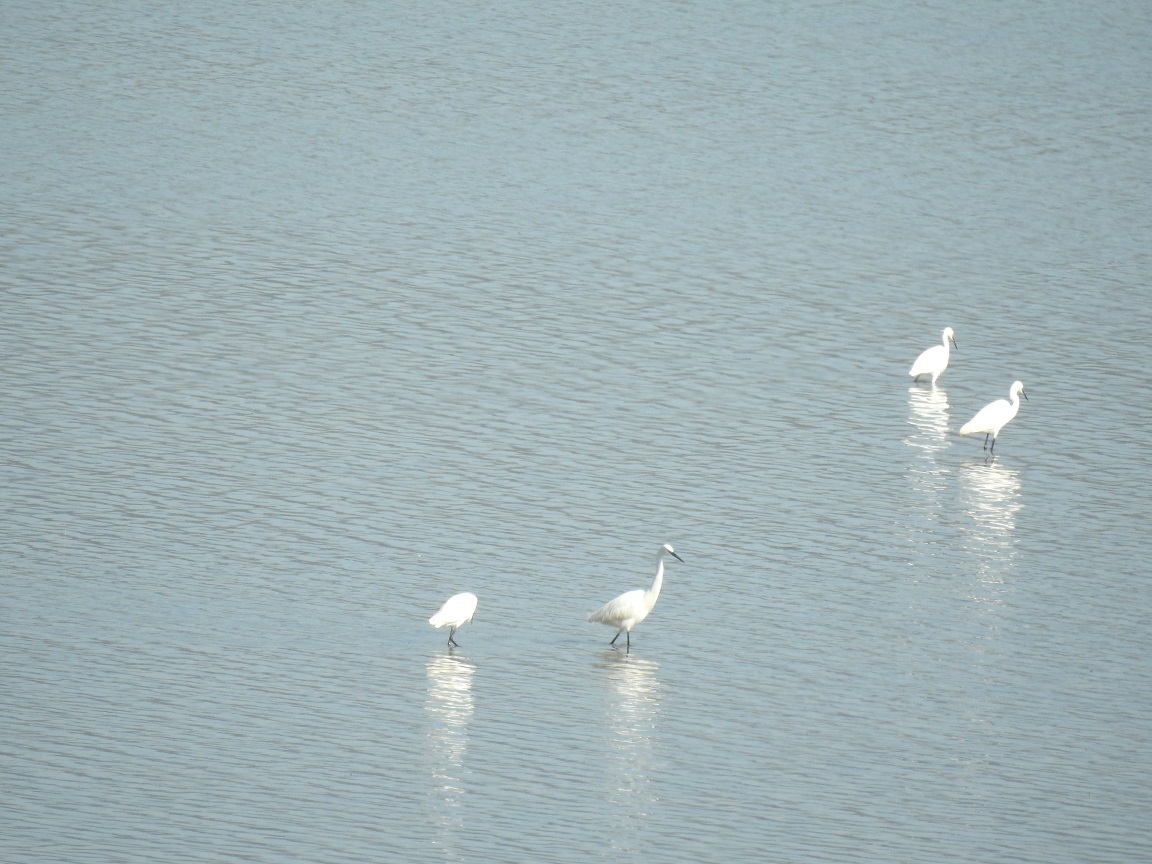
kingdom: Animalia
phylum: Chordata
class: Aves
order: Pelecaniformes
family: Ardeidae
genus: Egretta
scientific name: Egretta garzetta
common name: Little egret
